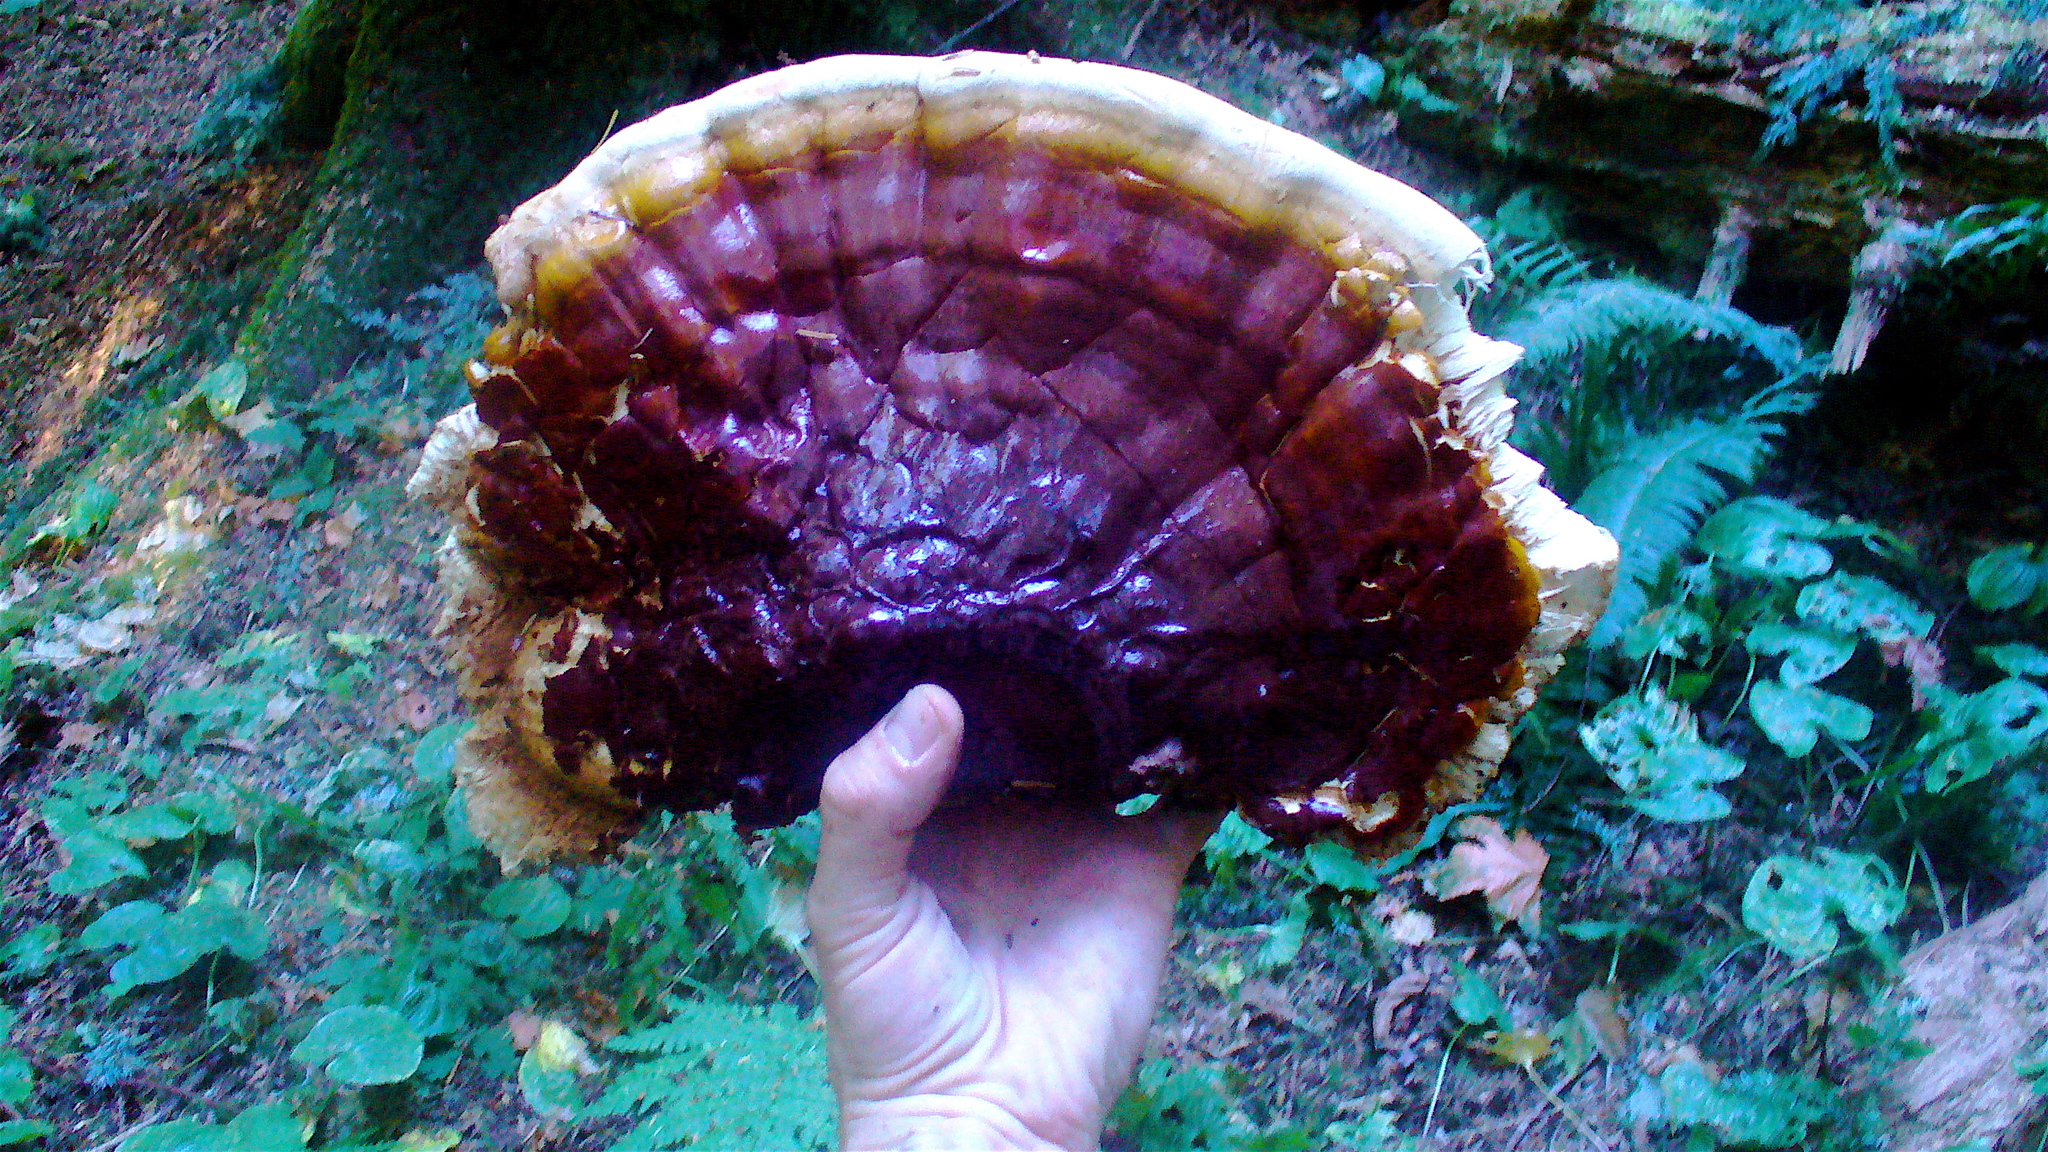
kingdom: Fungi
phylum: Basidiomycota
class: Agaricomycetes
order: Polyporales
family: Polyporaceae
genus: Ganoderma
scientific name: Ganoderma oregonense
